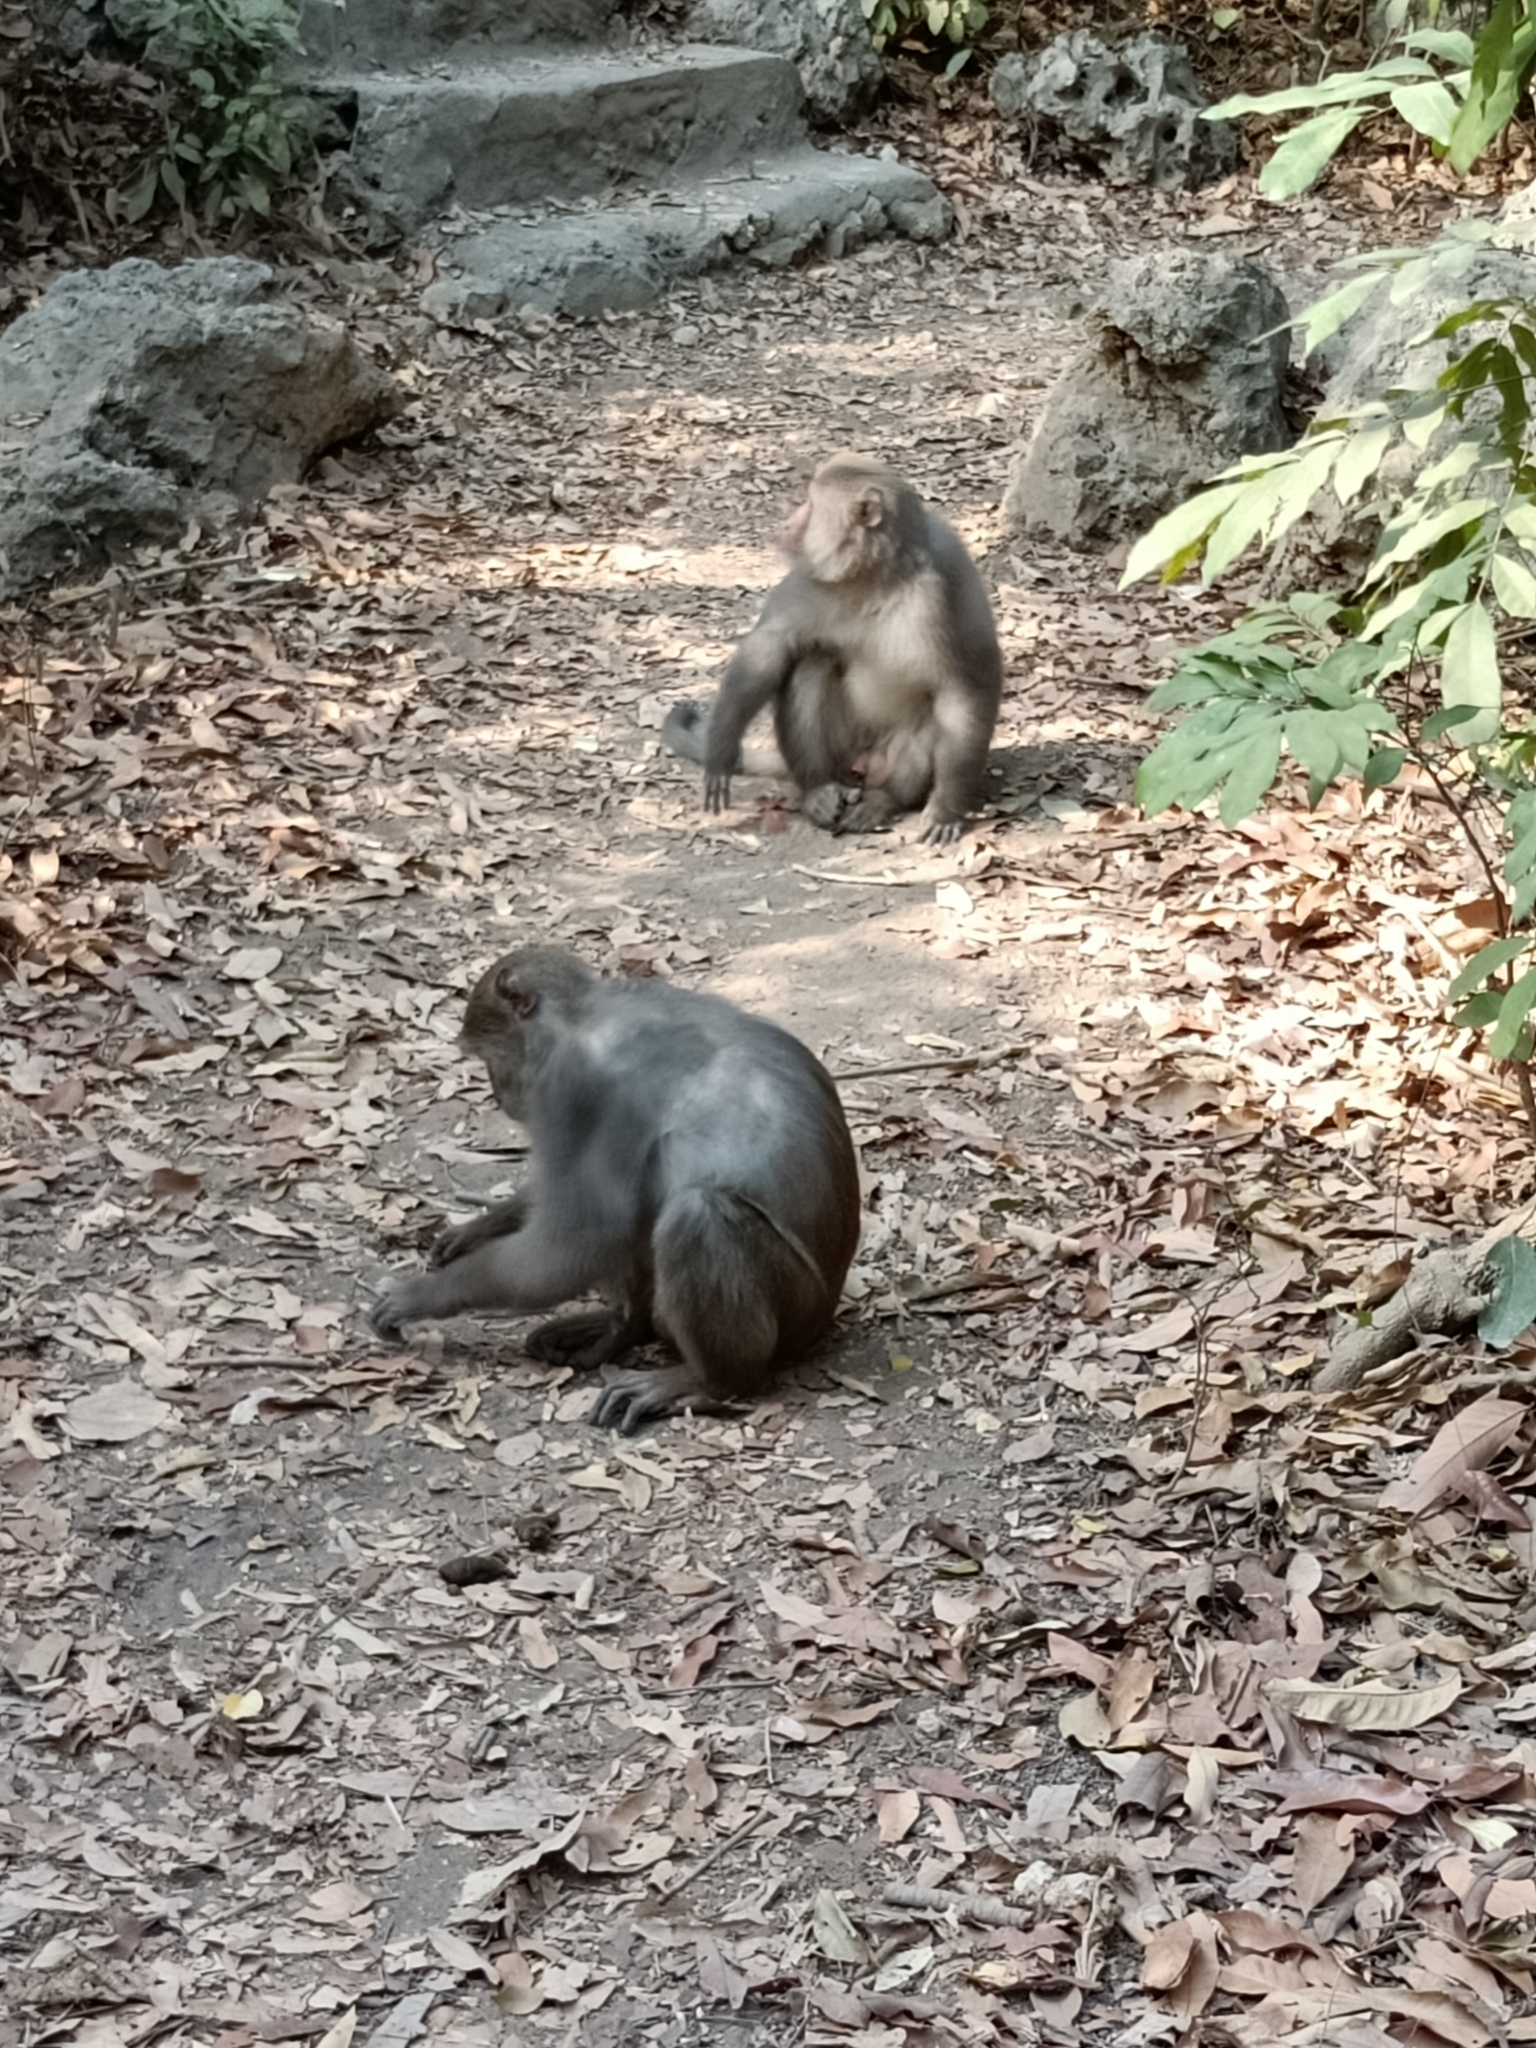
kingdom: Animalia
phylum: Chordata
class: Mammalia
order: Primates
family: Cercopithecidae
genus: Macaca
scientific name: Macaca cyclopis
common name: Formosan rock macaque
